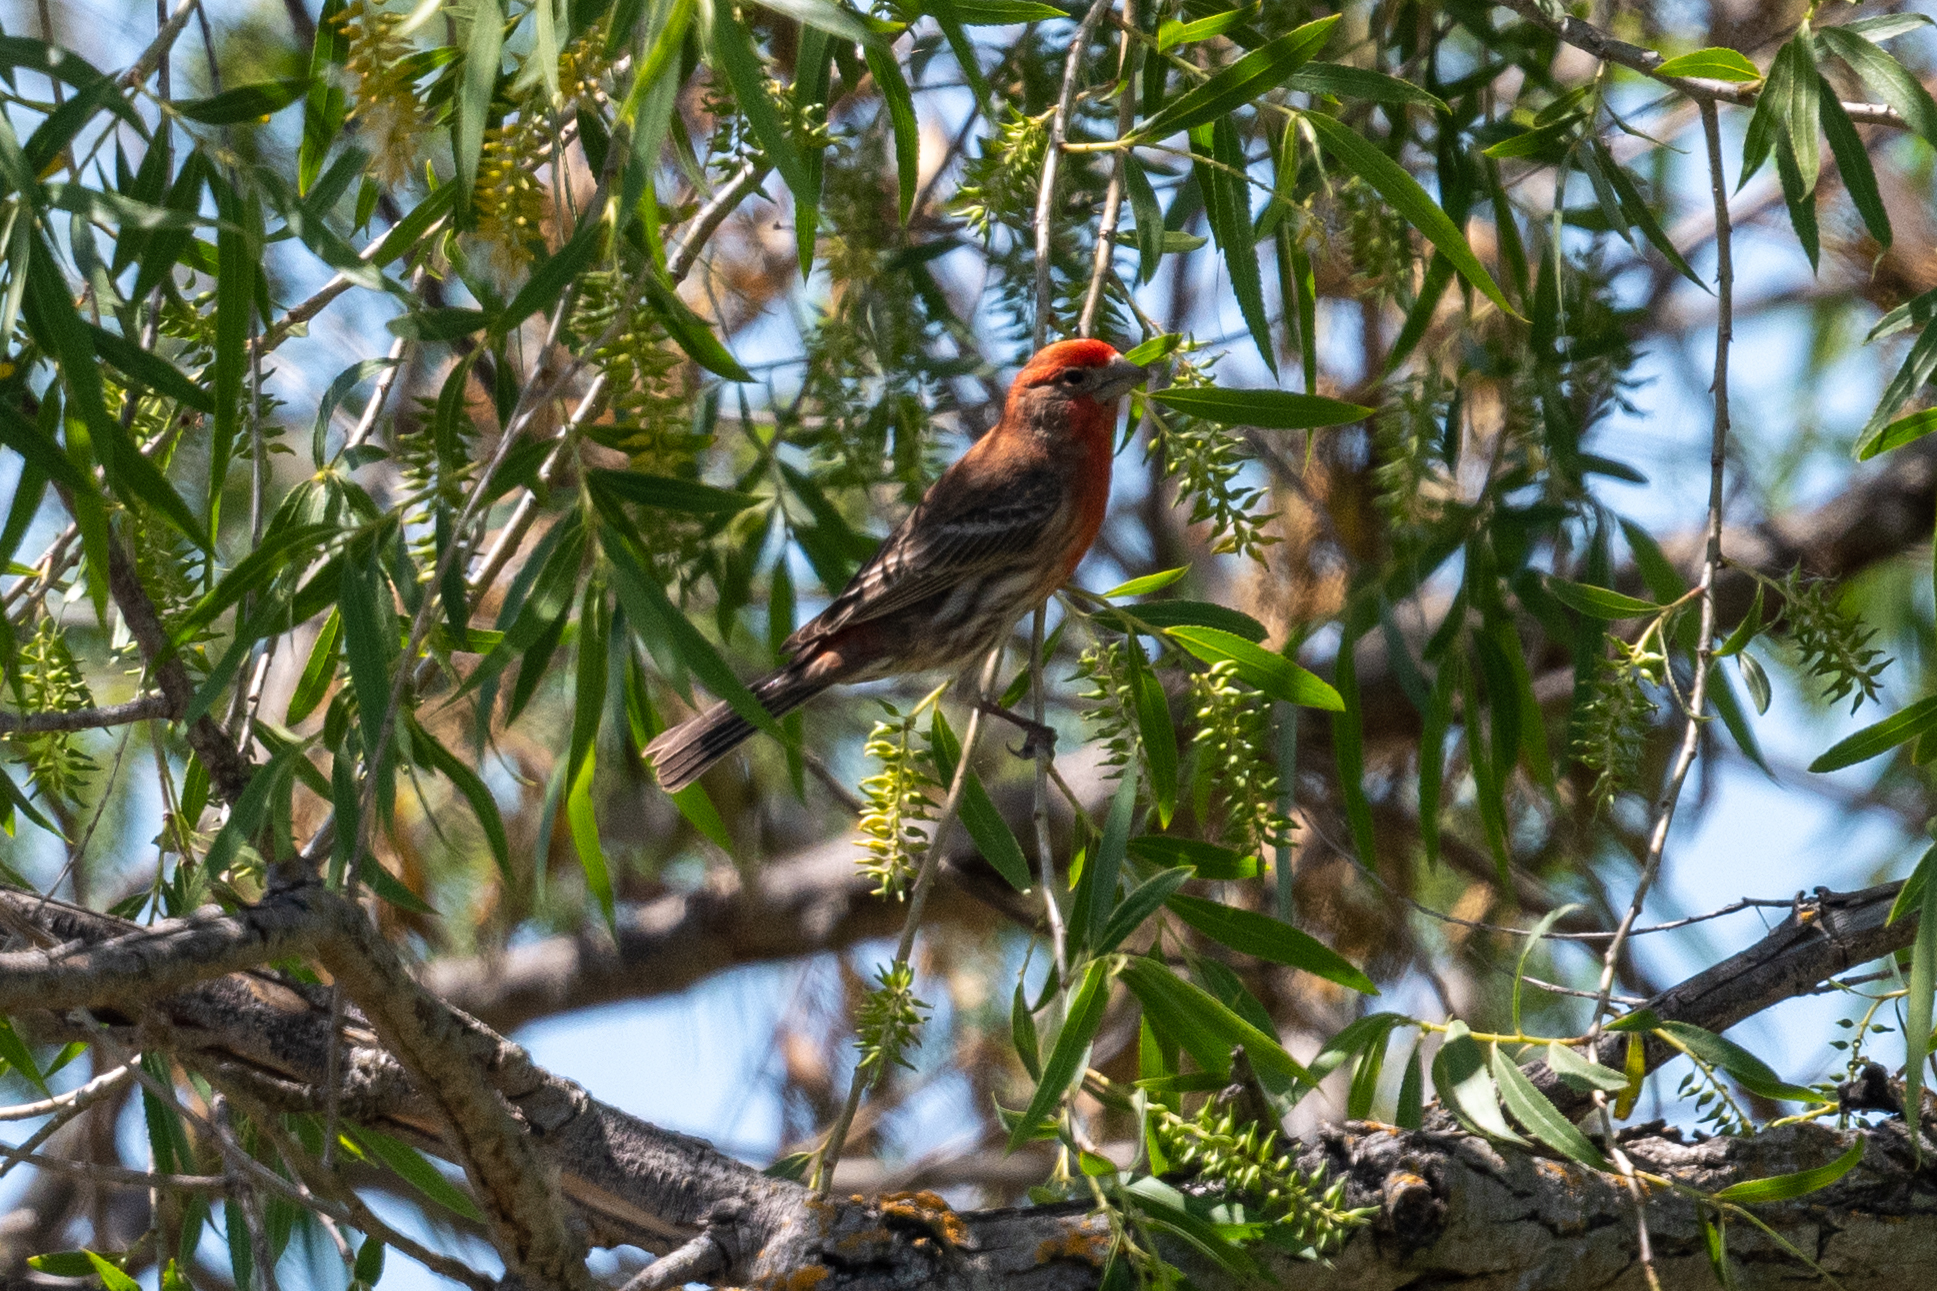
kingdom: Animalia
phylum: Chordata
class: Aves
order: Passeriformes
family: Fringillidae
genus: Haemorhous
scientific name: Haemorhous mexicanus
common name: House finch
